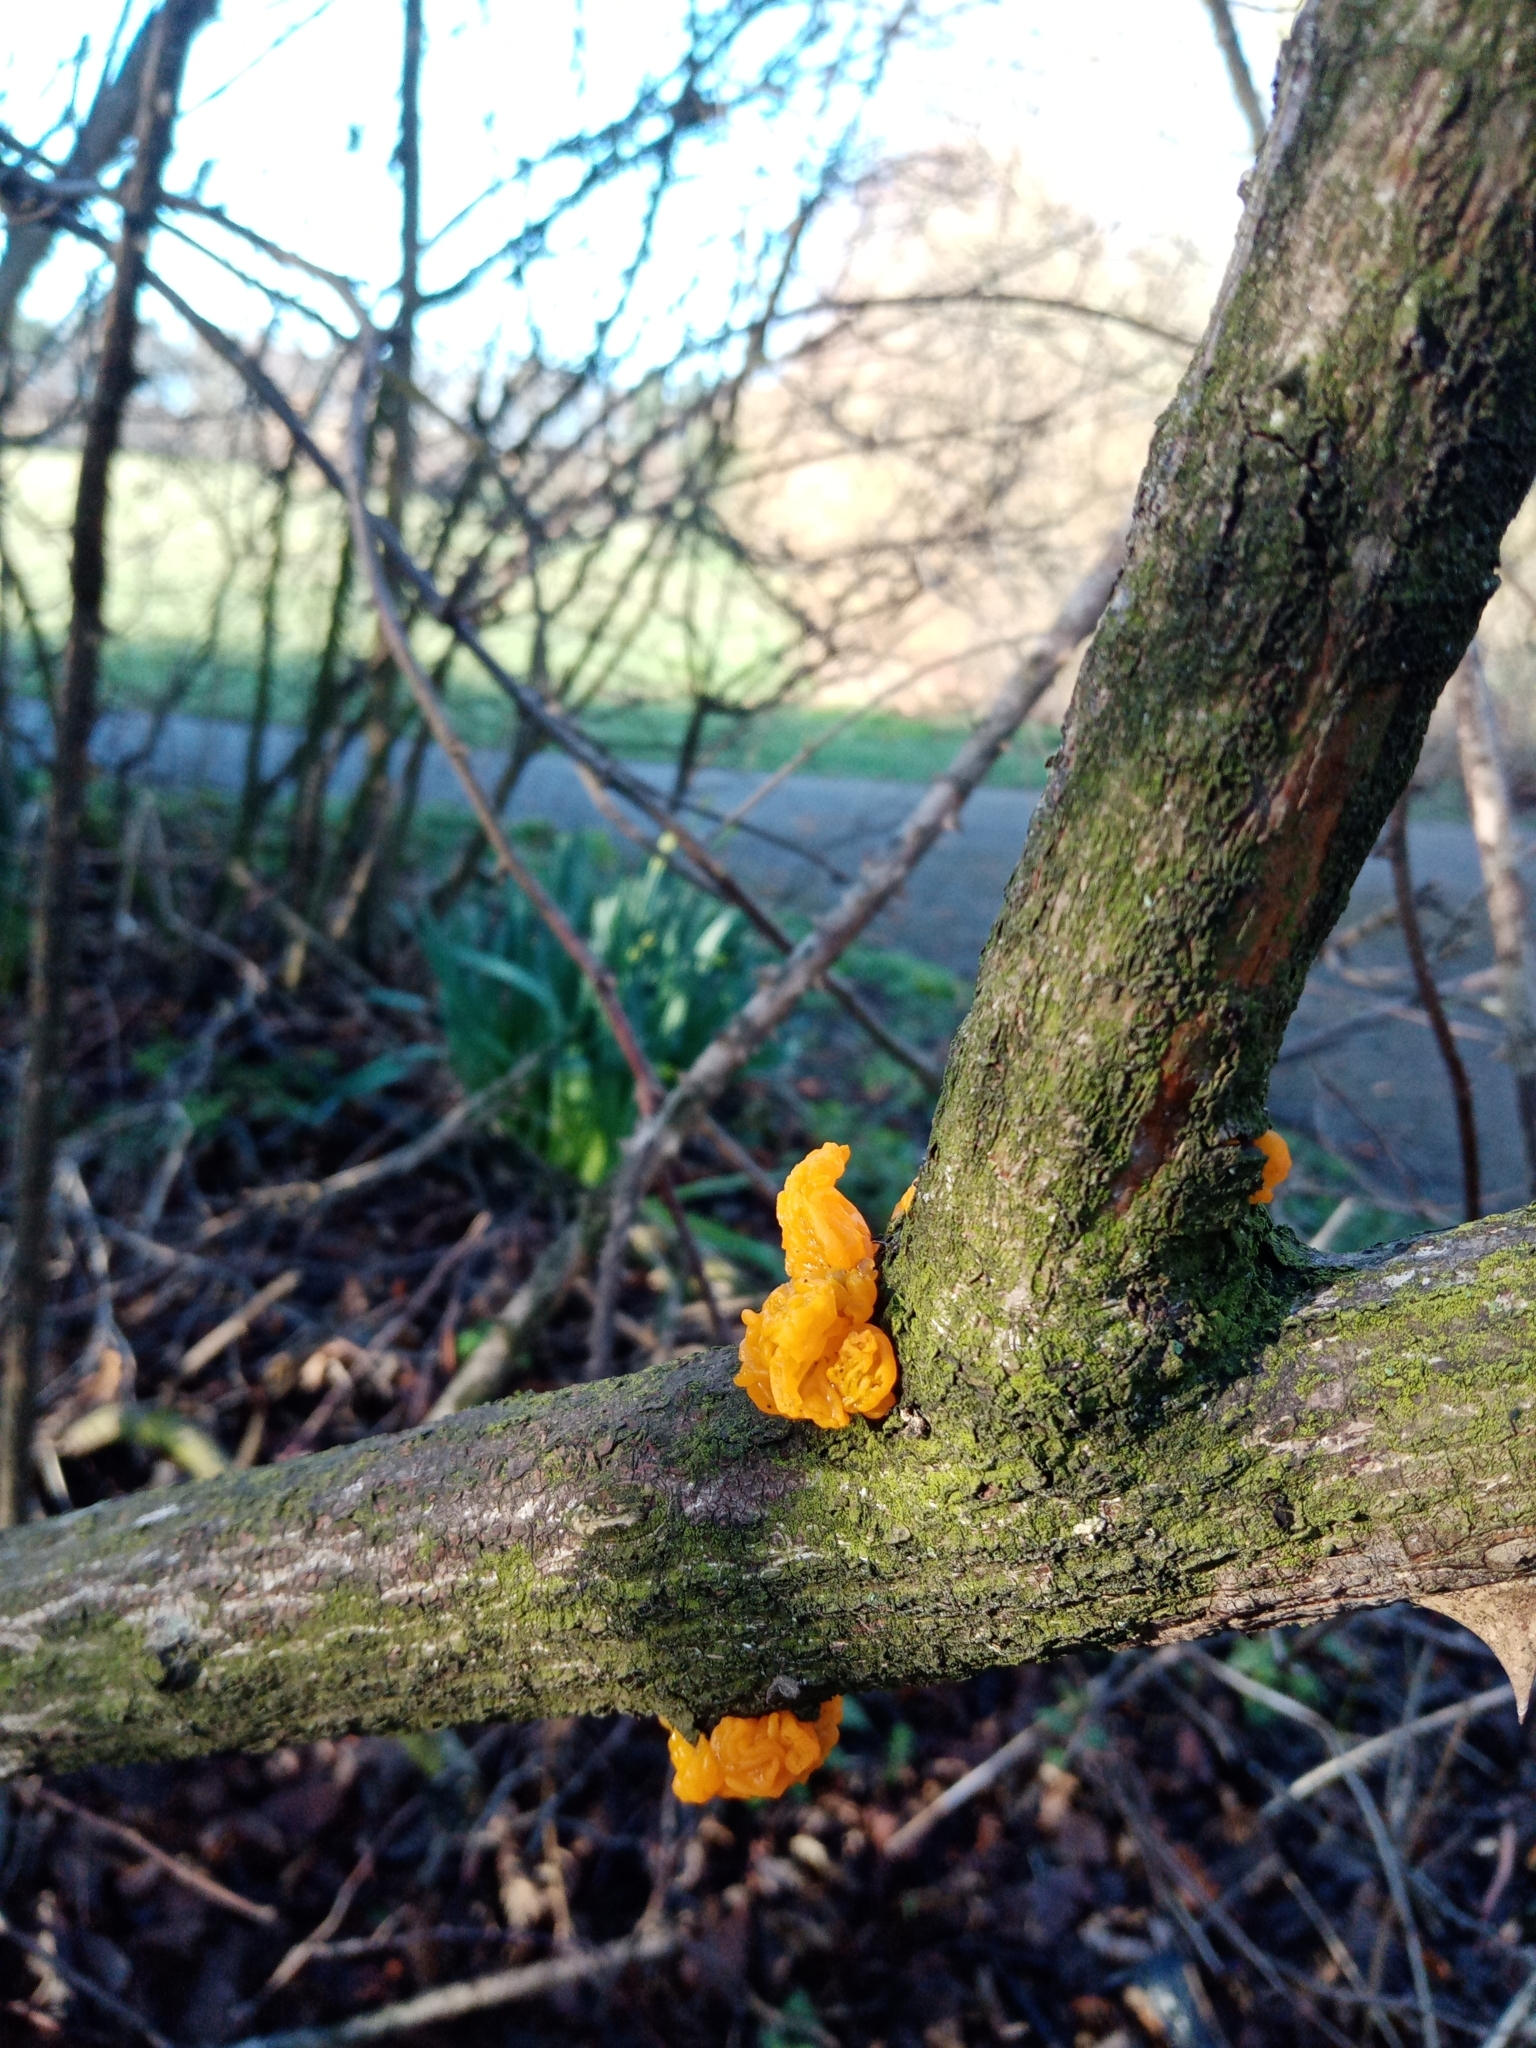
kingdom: Fungi
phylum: Basidiomycota
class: Tremellomycetes
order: Tremellales
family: Tremellaceae
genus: Tremella
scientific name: Tremella mesenterica
